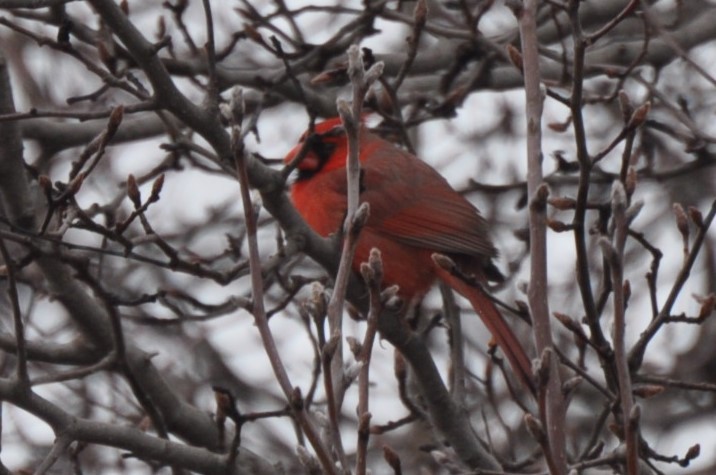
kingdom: Animalia
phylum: Chordata
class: Aves
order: Passeriformes
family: Cardinalidae
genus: Cardinalis
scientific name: Cardinalis cardinalis
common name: Northern cardinal
